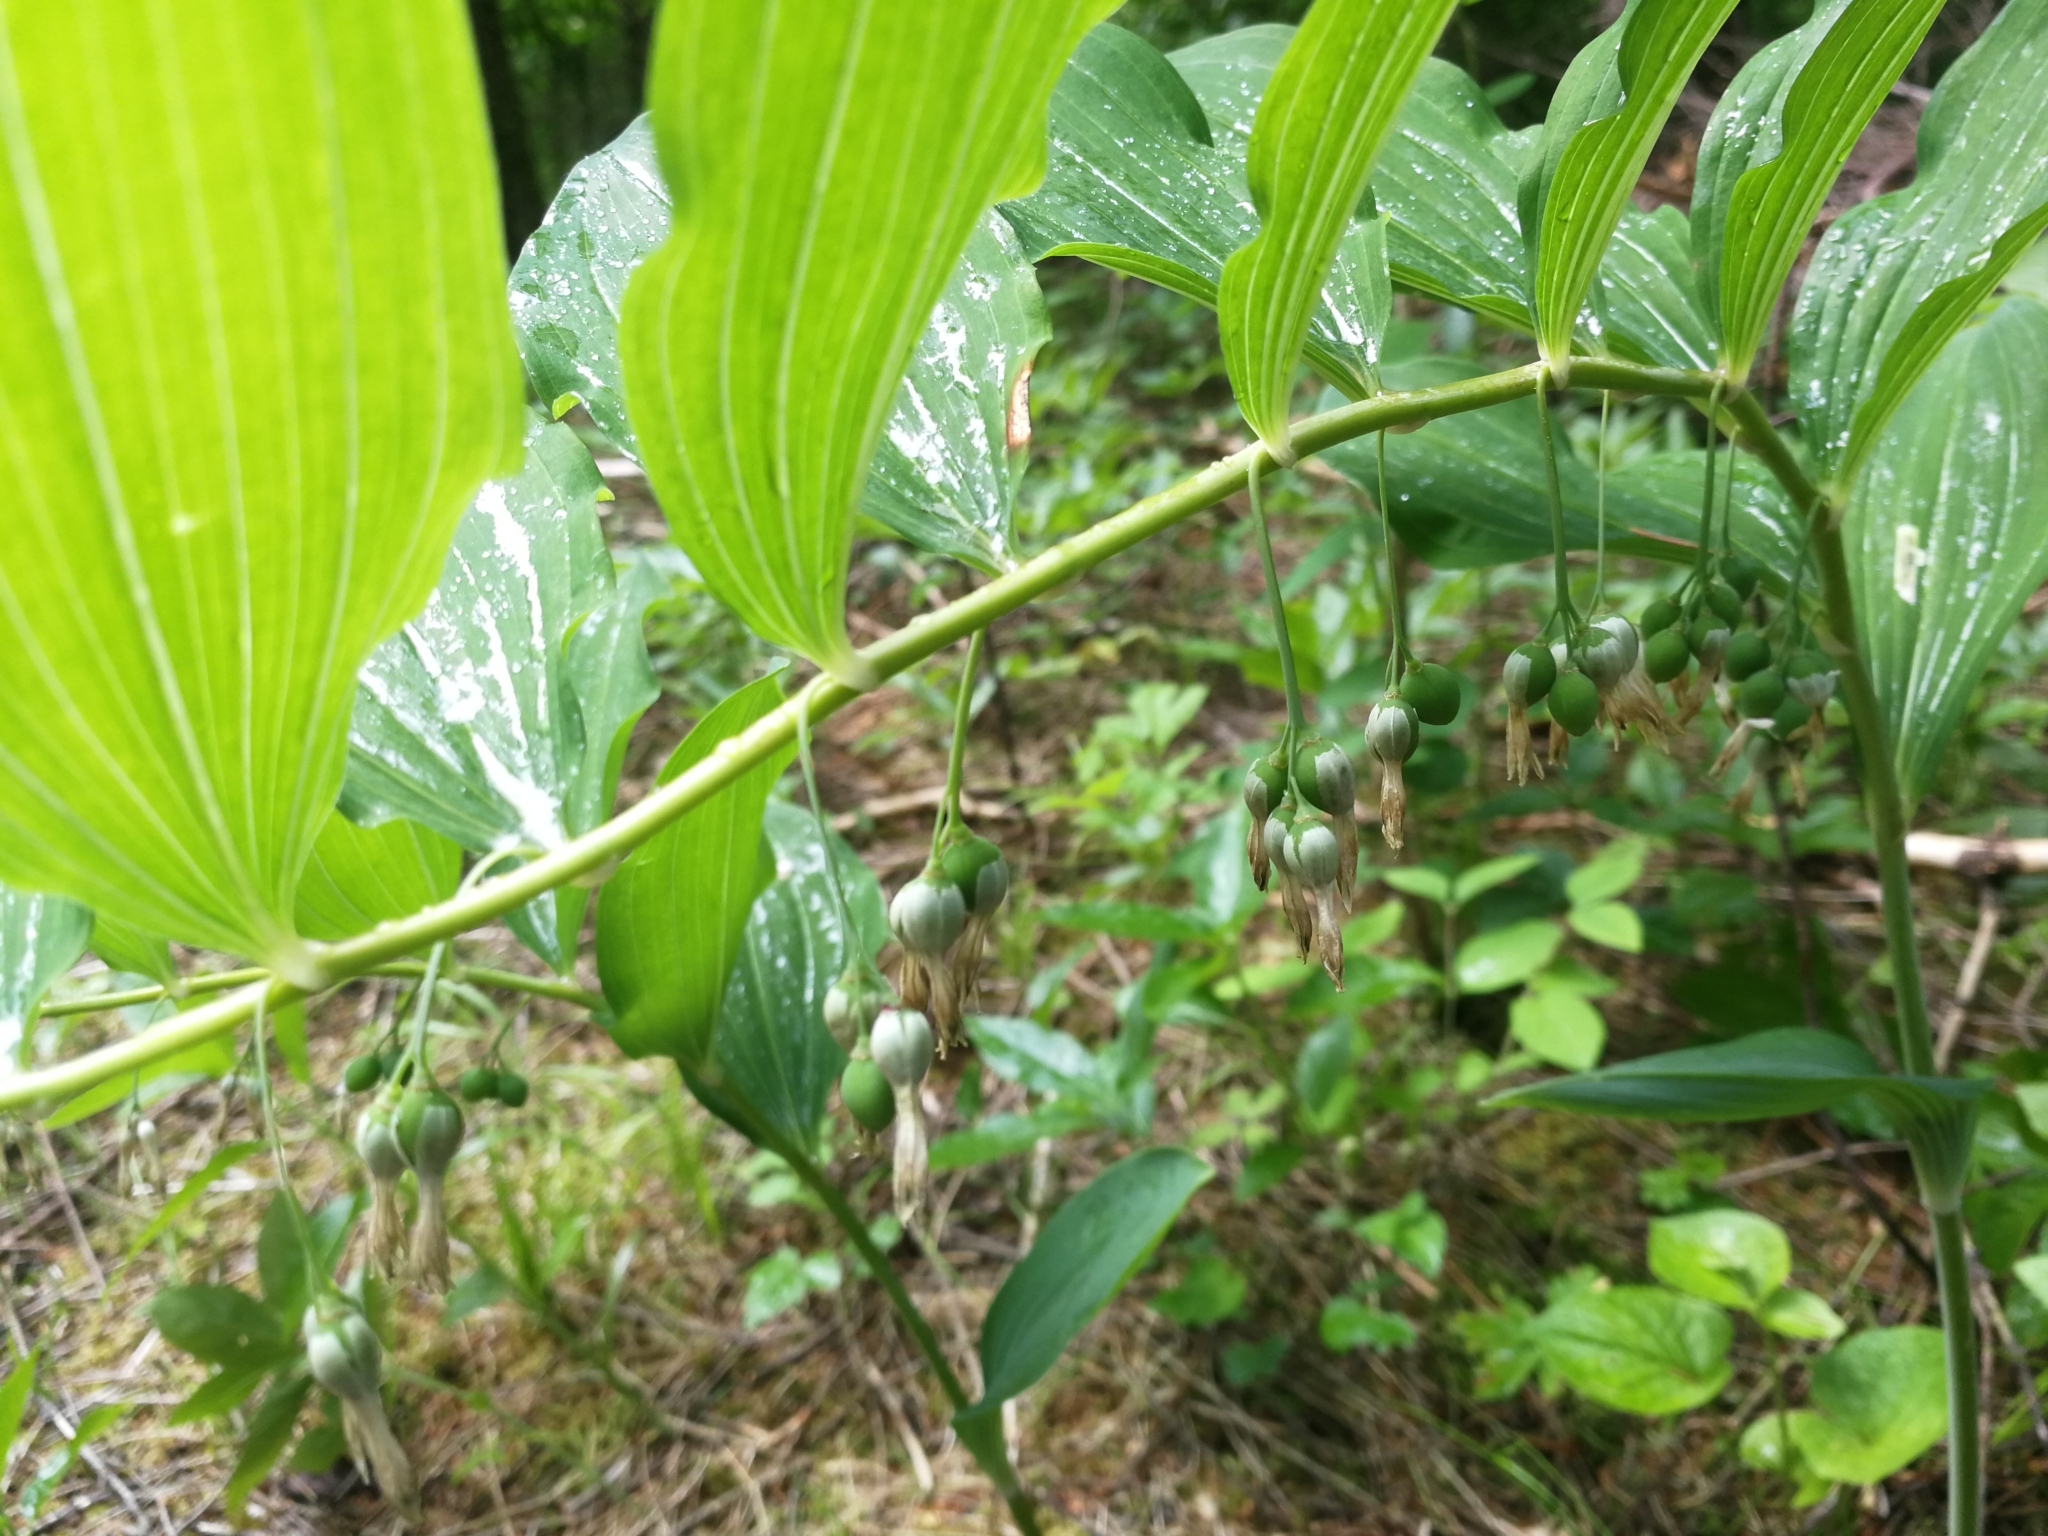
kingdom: Plantae
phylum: Tracheophyta
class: Liliopsida
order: Asparagales
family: Asparagaceae
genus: Polygonatum
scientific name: Polygonatum multiflorum
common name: Solomon's-seal
